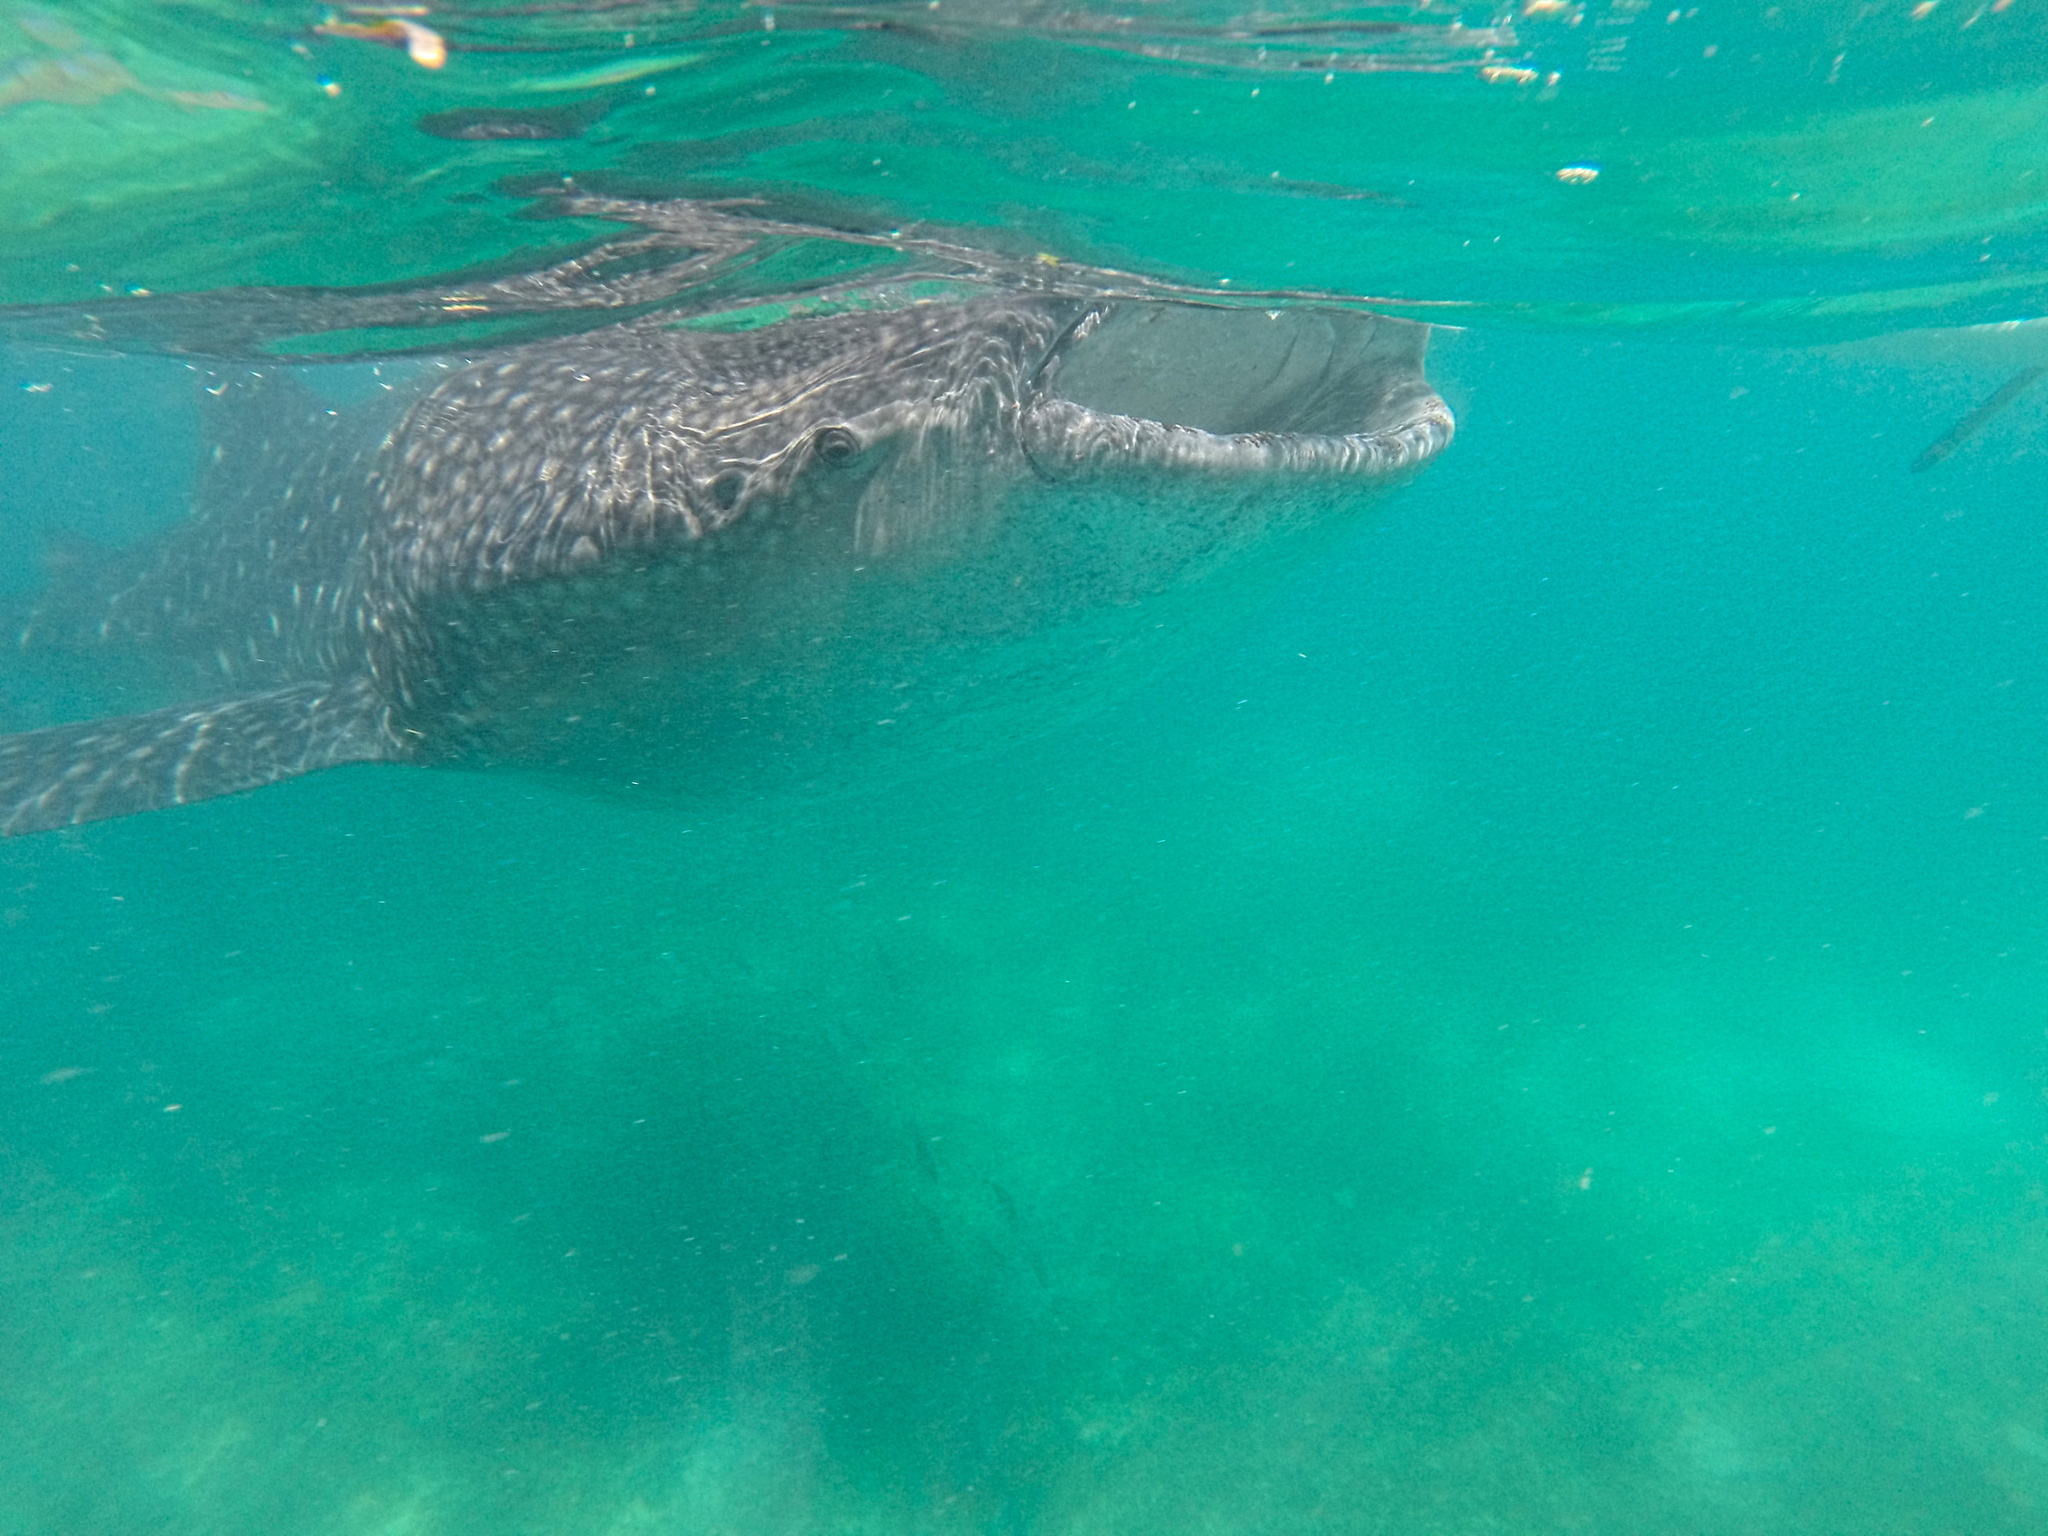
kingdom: Animalia
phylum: Chordata
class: Elasmobranchii
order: Orectolobiformes
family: Rhincodontidae
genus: Rhincodon
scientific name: Rhincodon typus
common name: Whale shark
